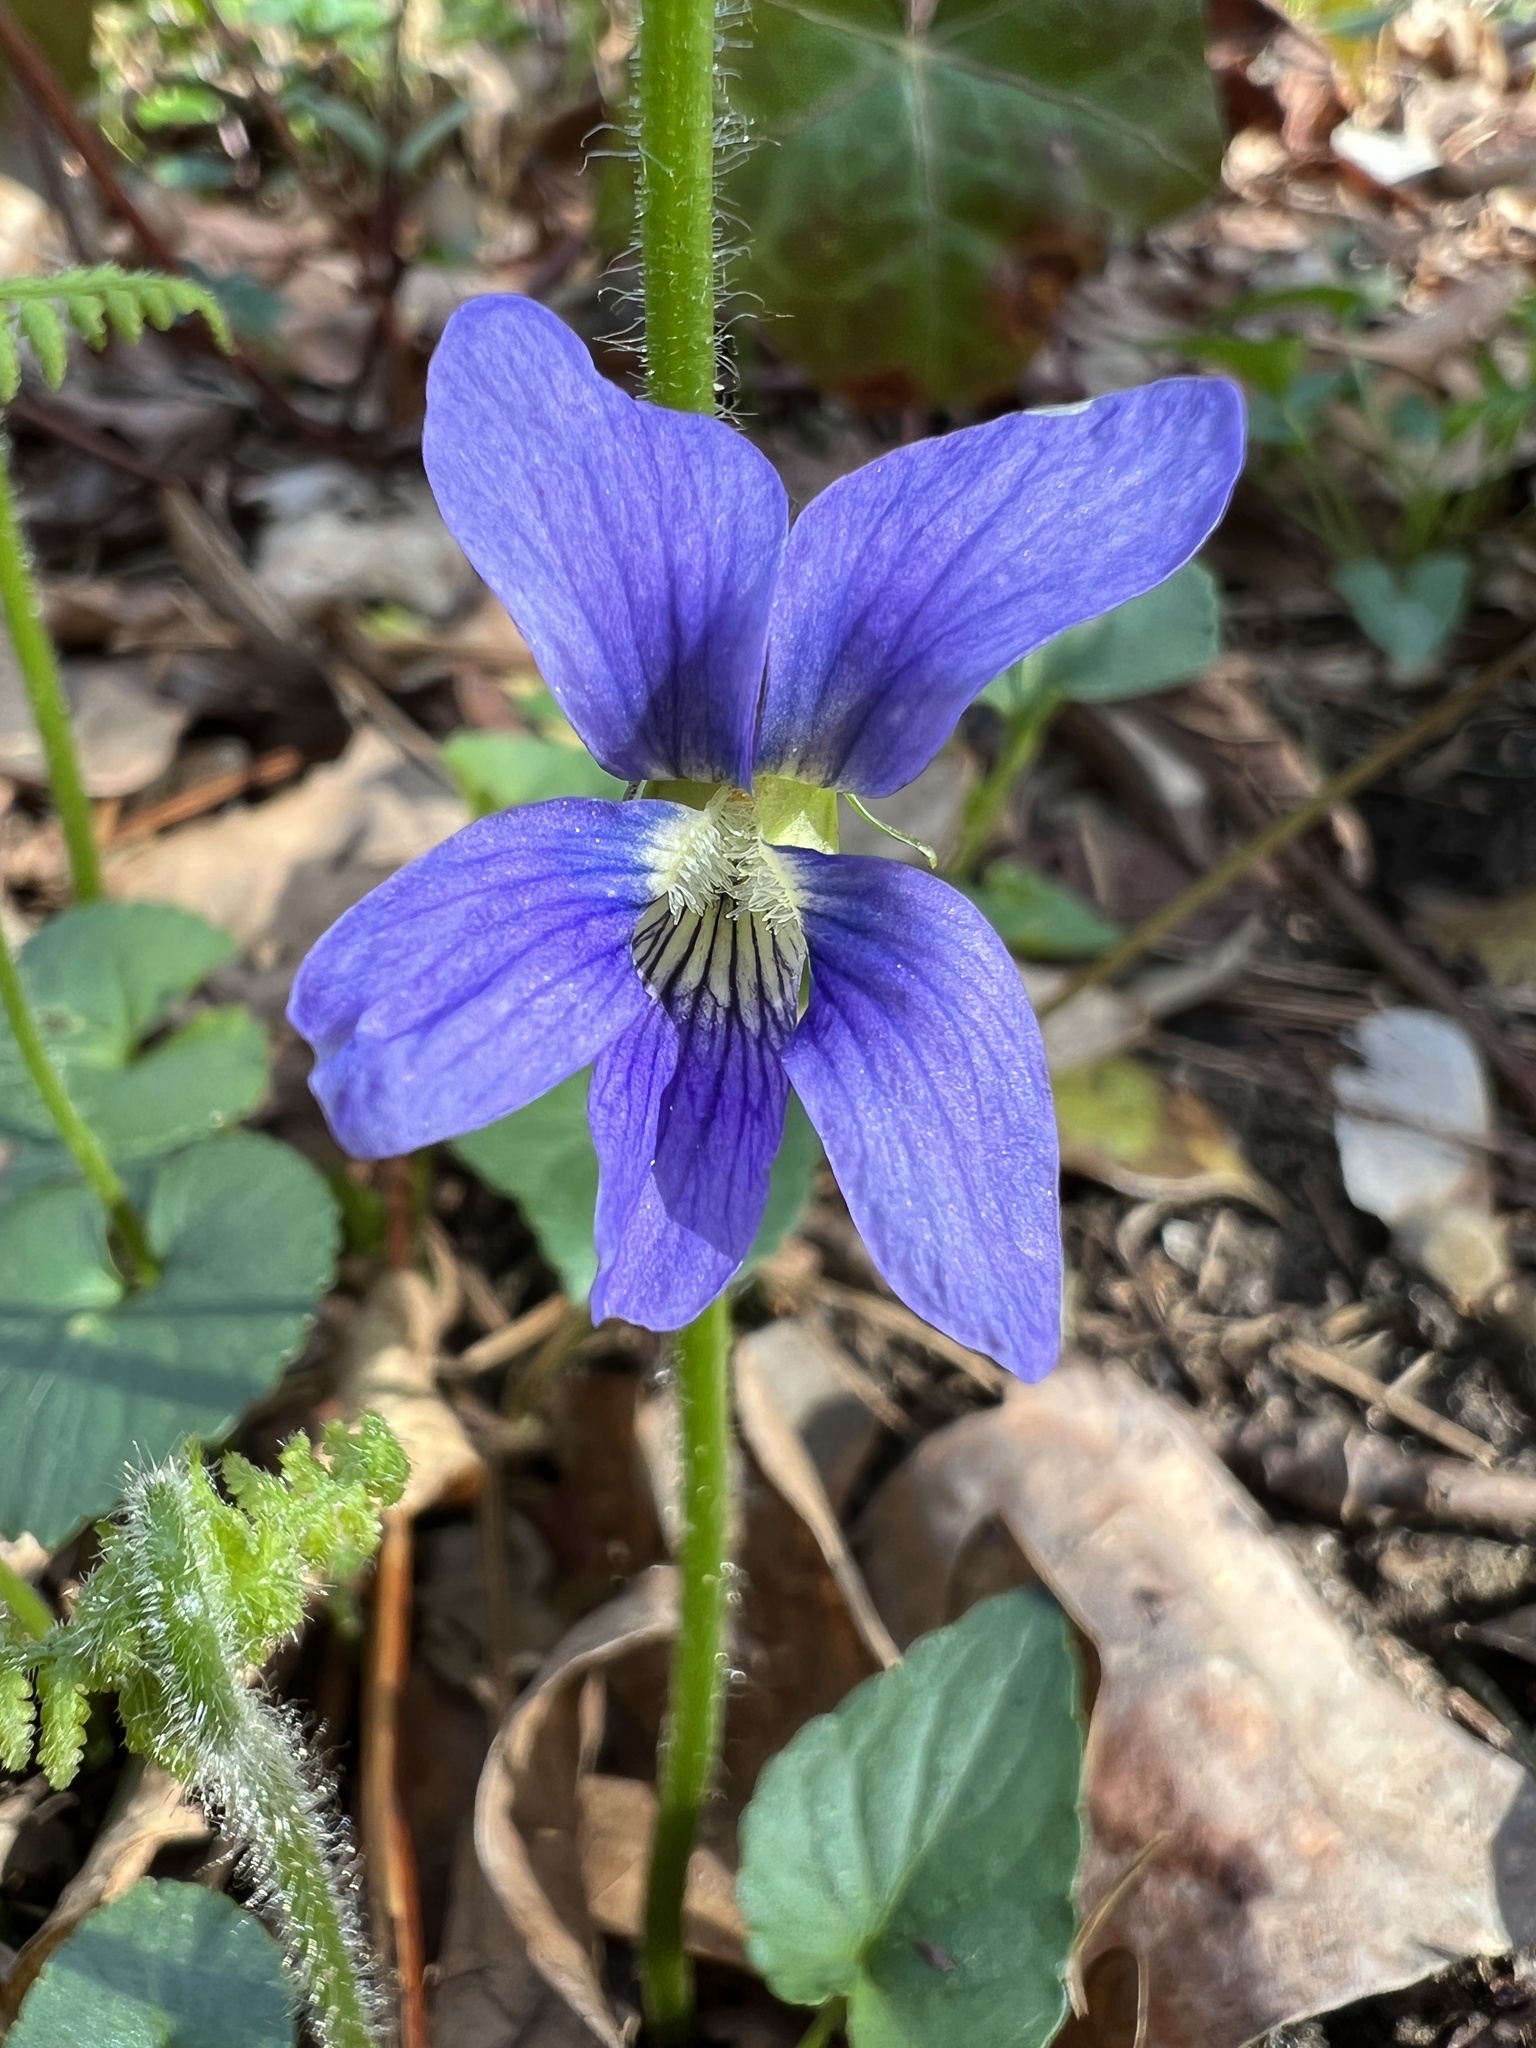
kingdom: Plantae
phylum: Tracheophyta
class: Magnoliopsida
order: Malpighiales
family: Violaceae
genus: Viola
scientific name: Viola sororia
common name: Dooryard violet
